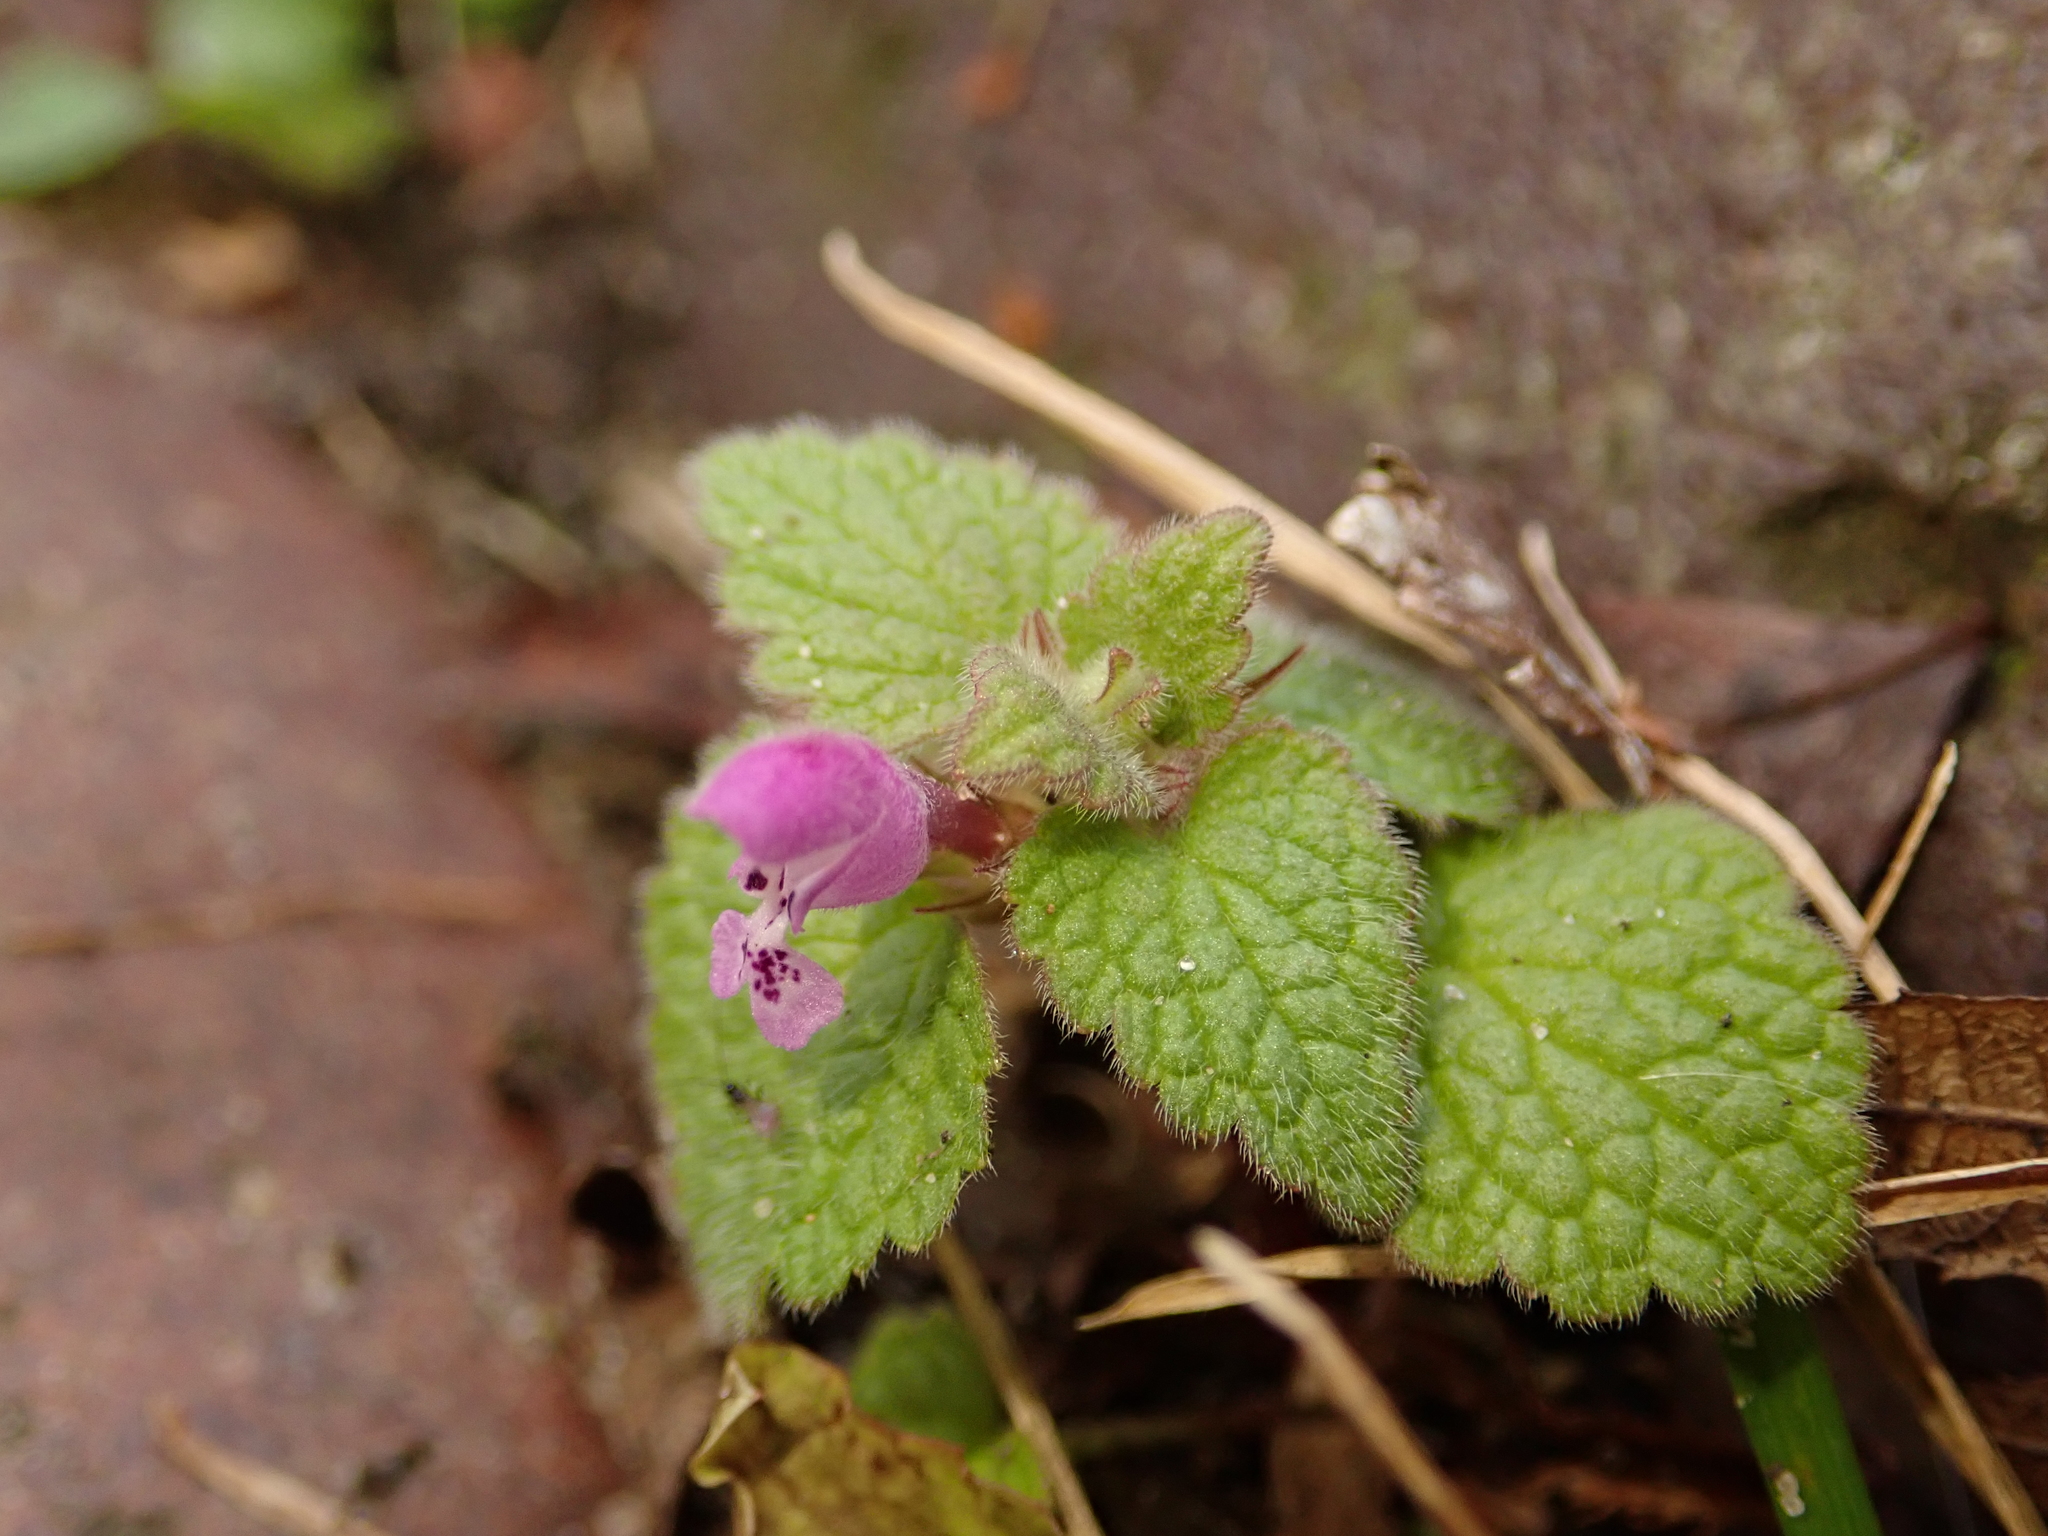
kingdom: Plantae
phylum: Tracheophyta
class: Magnoliopsida
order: Lamiales
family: Lamiaceae
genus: Lamium
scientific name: Lamium purpureum
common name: Red dead-nettle
